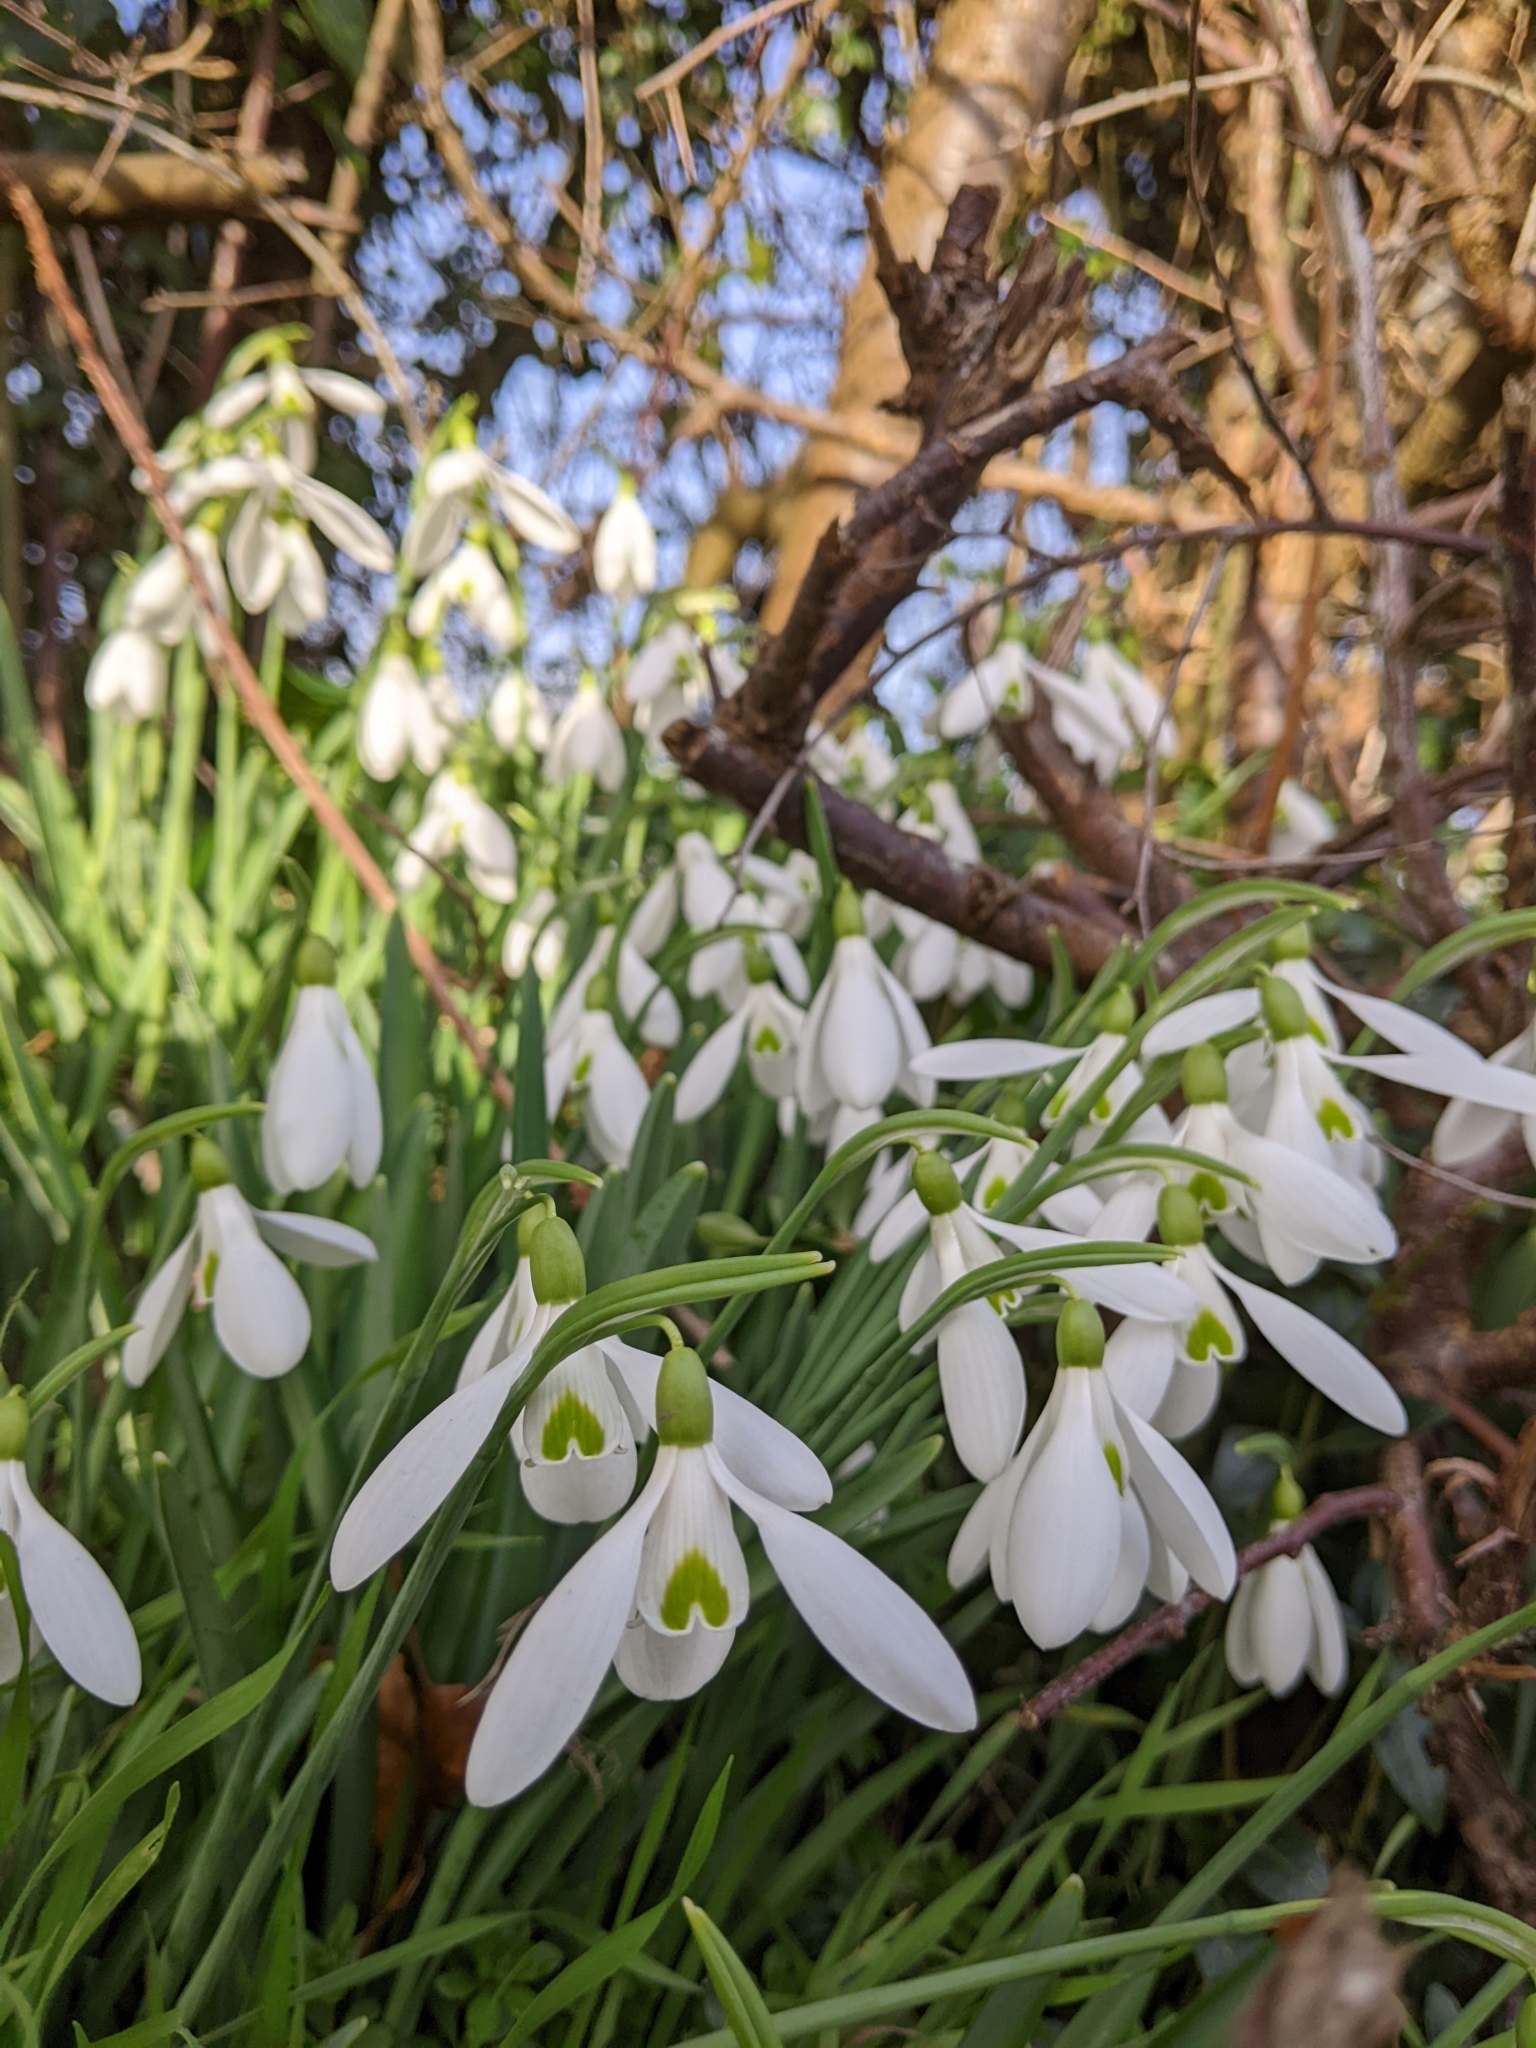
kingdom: Plantae
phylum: Tracheophyta
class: Liliopsida
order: Asparagales
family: Amaryllidaceae
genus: Galanthus
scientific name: Galanthus nivalis
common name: Snowdrop
